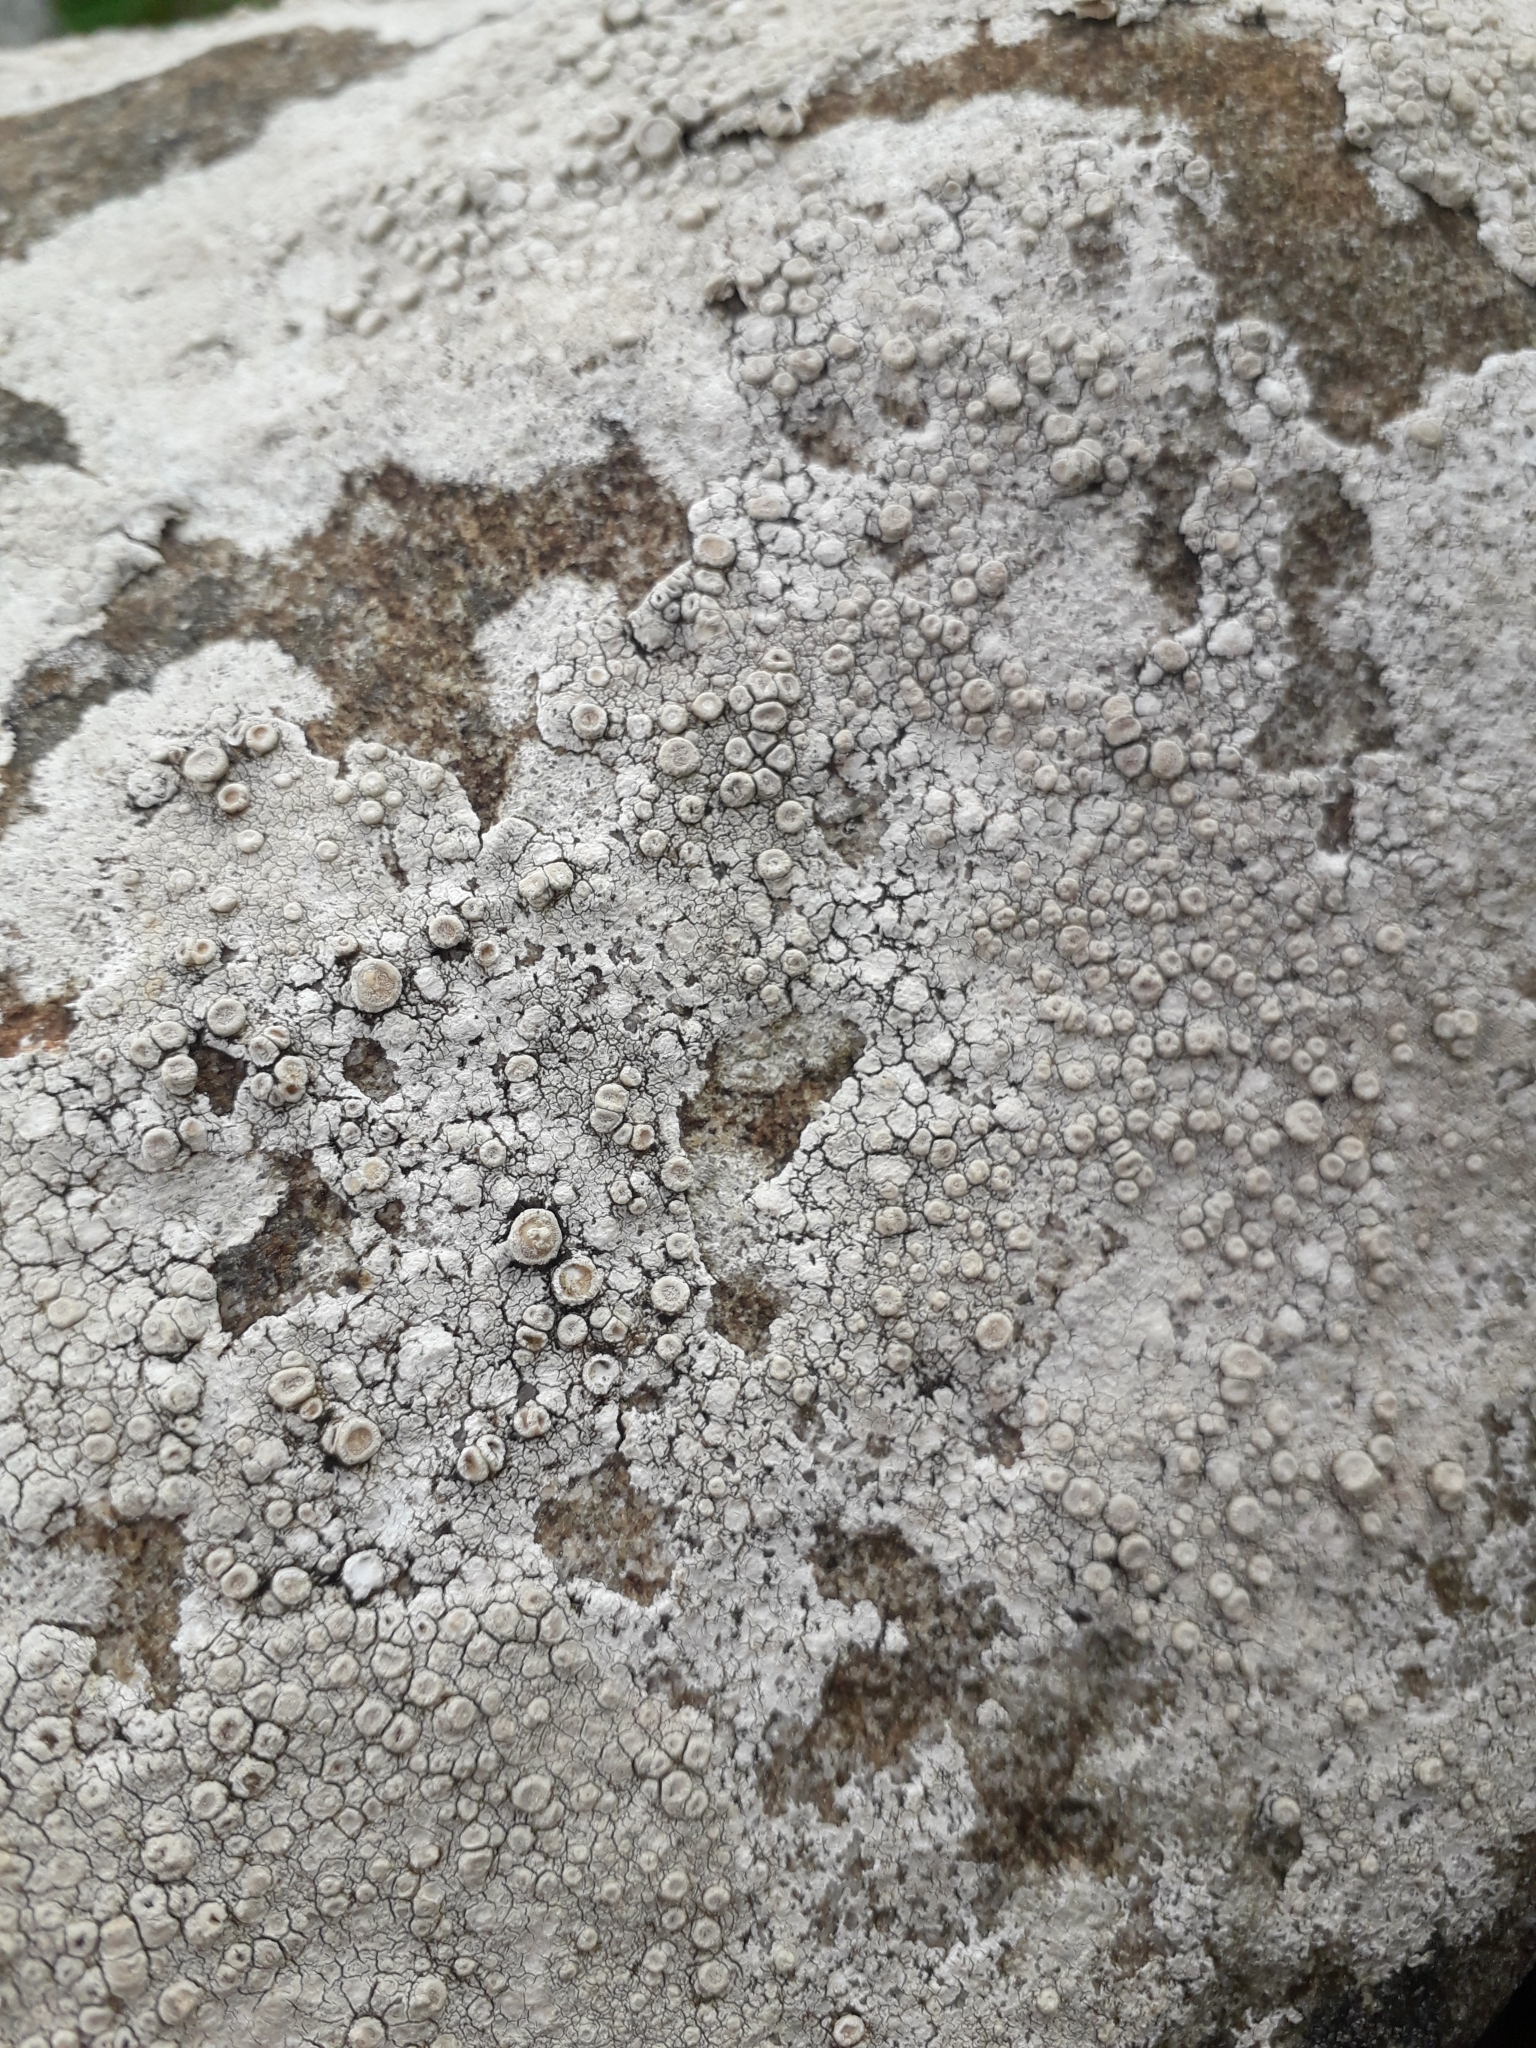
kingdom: Fungi
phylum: Ascomycota
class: Lecanoromycetes
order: Pertusariales
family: Ochrolechiaceae
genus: Ochrolechia
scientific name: Ochrolechia parella
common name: Crab's eye lichen
